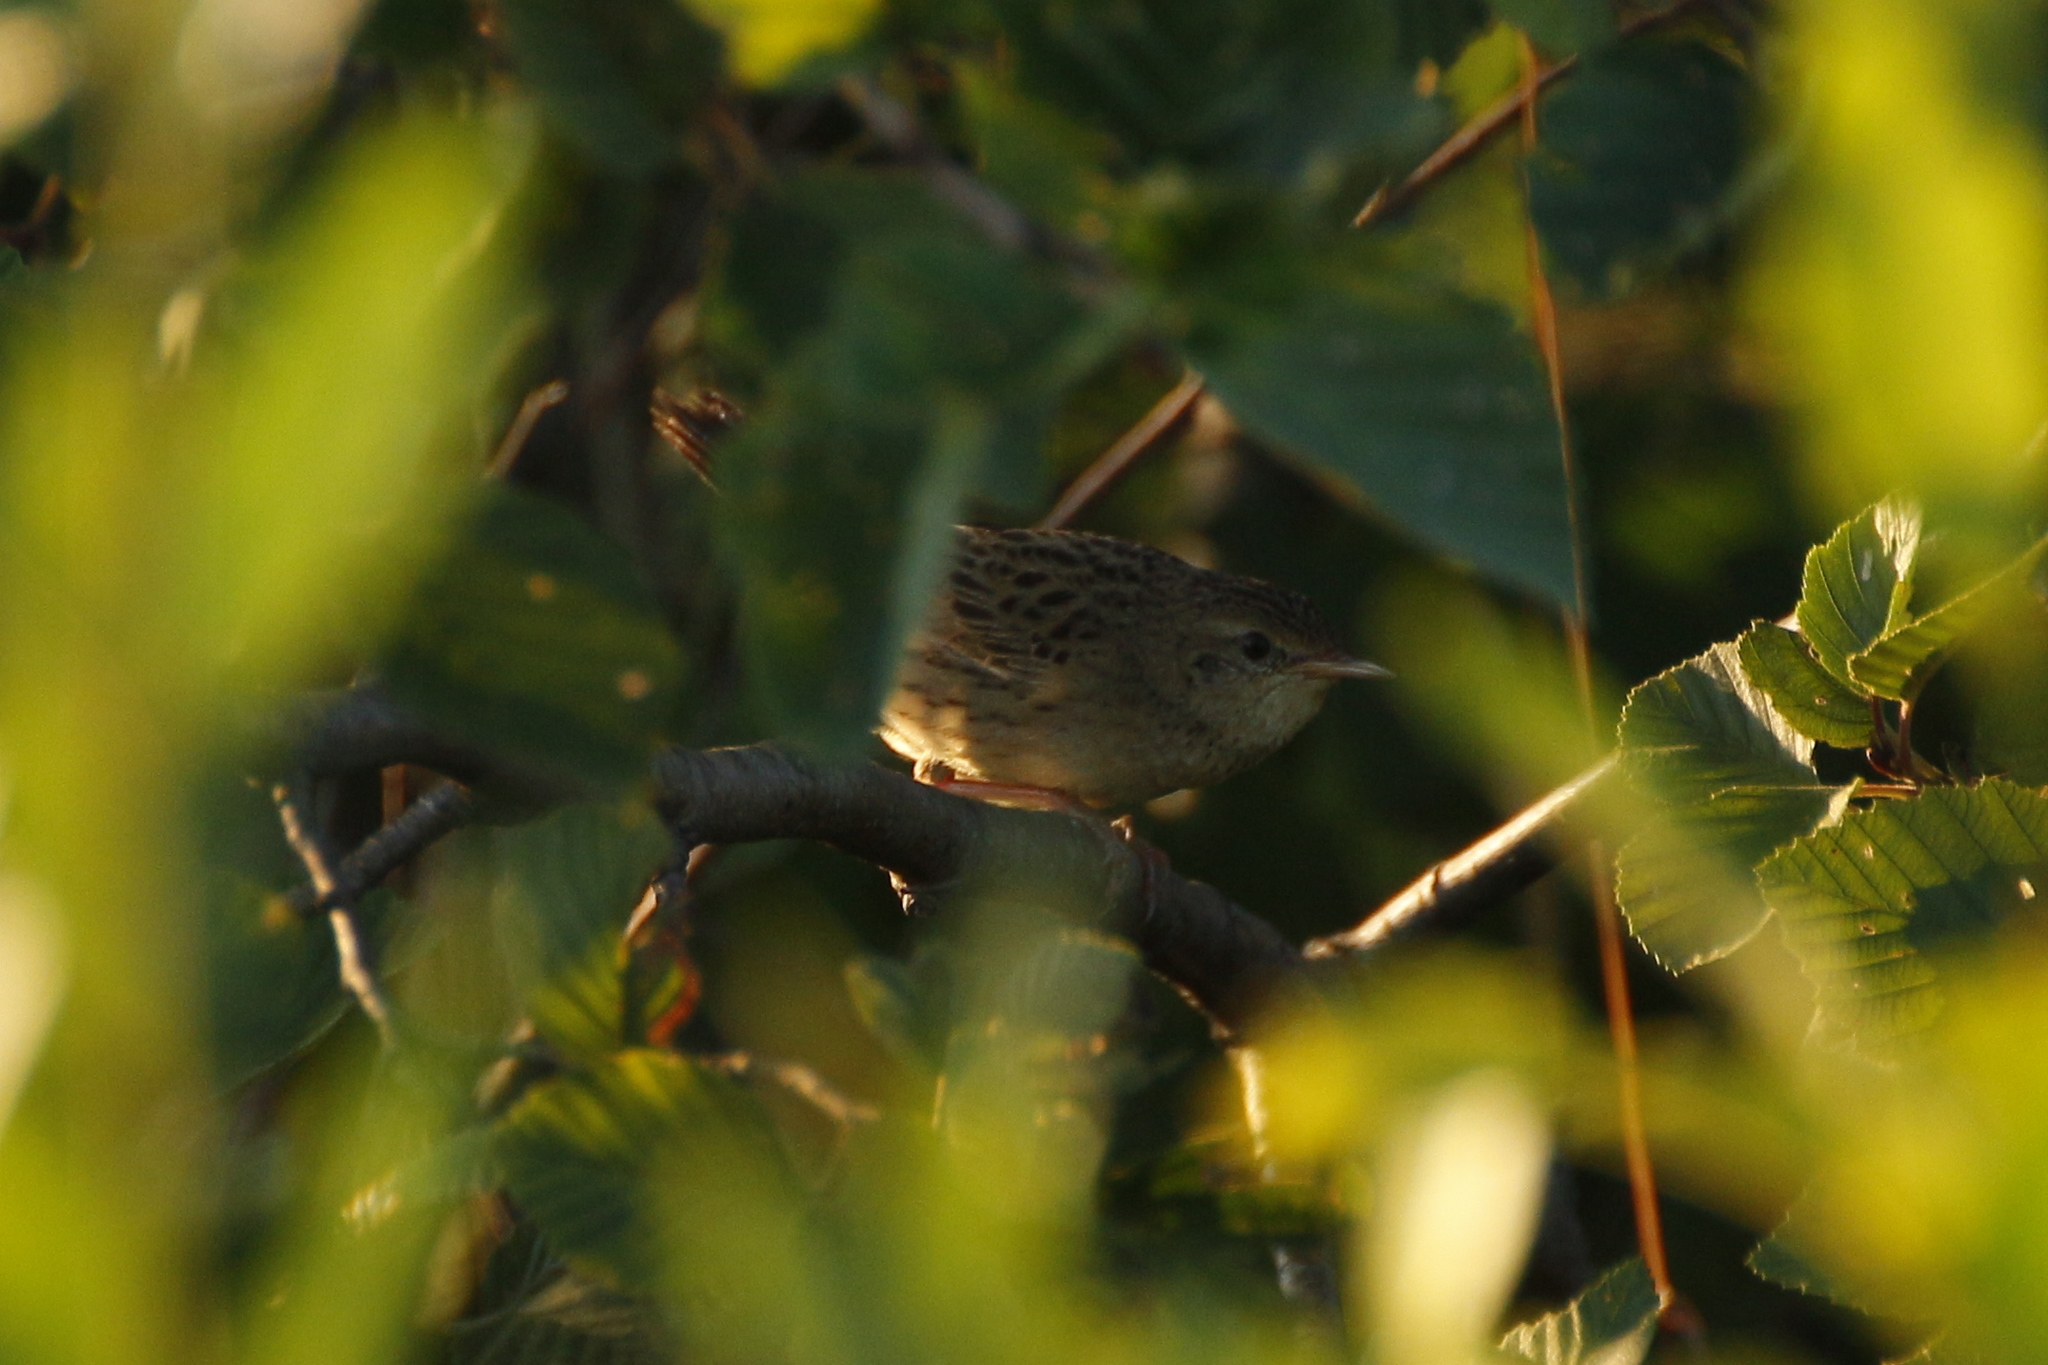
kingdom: Animalia
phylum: Chordata
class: Aves
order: Passeriformes
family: Locustellidae
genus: Locustella
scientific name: Locustella naevia
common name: Common grasshopper warbler
